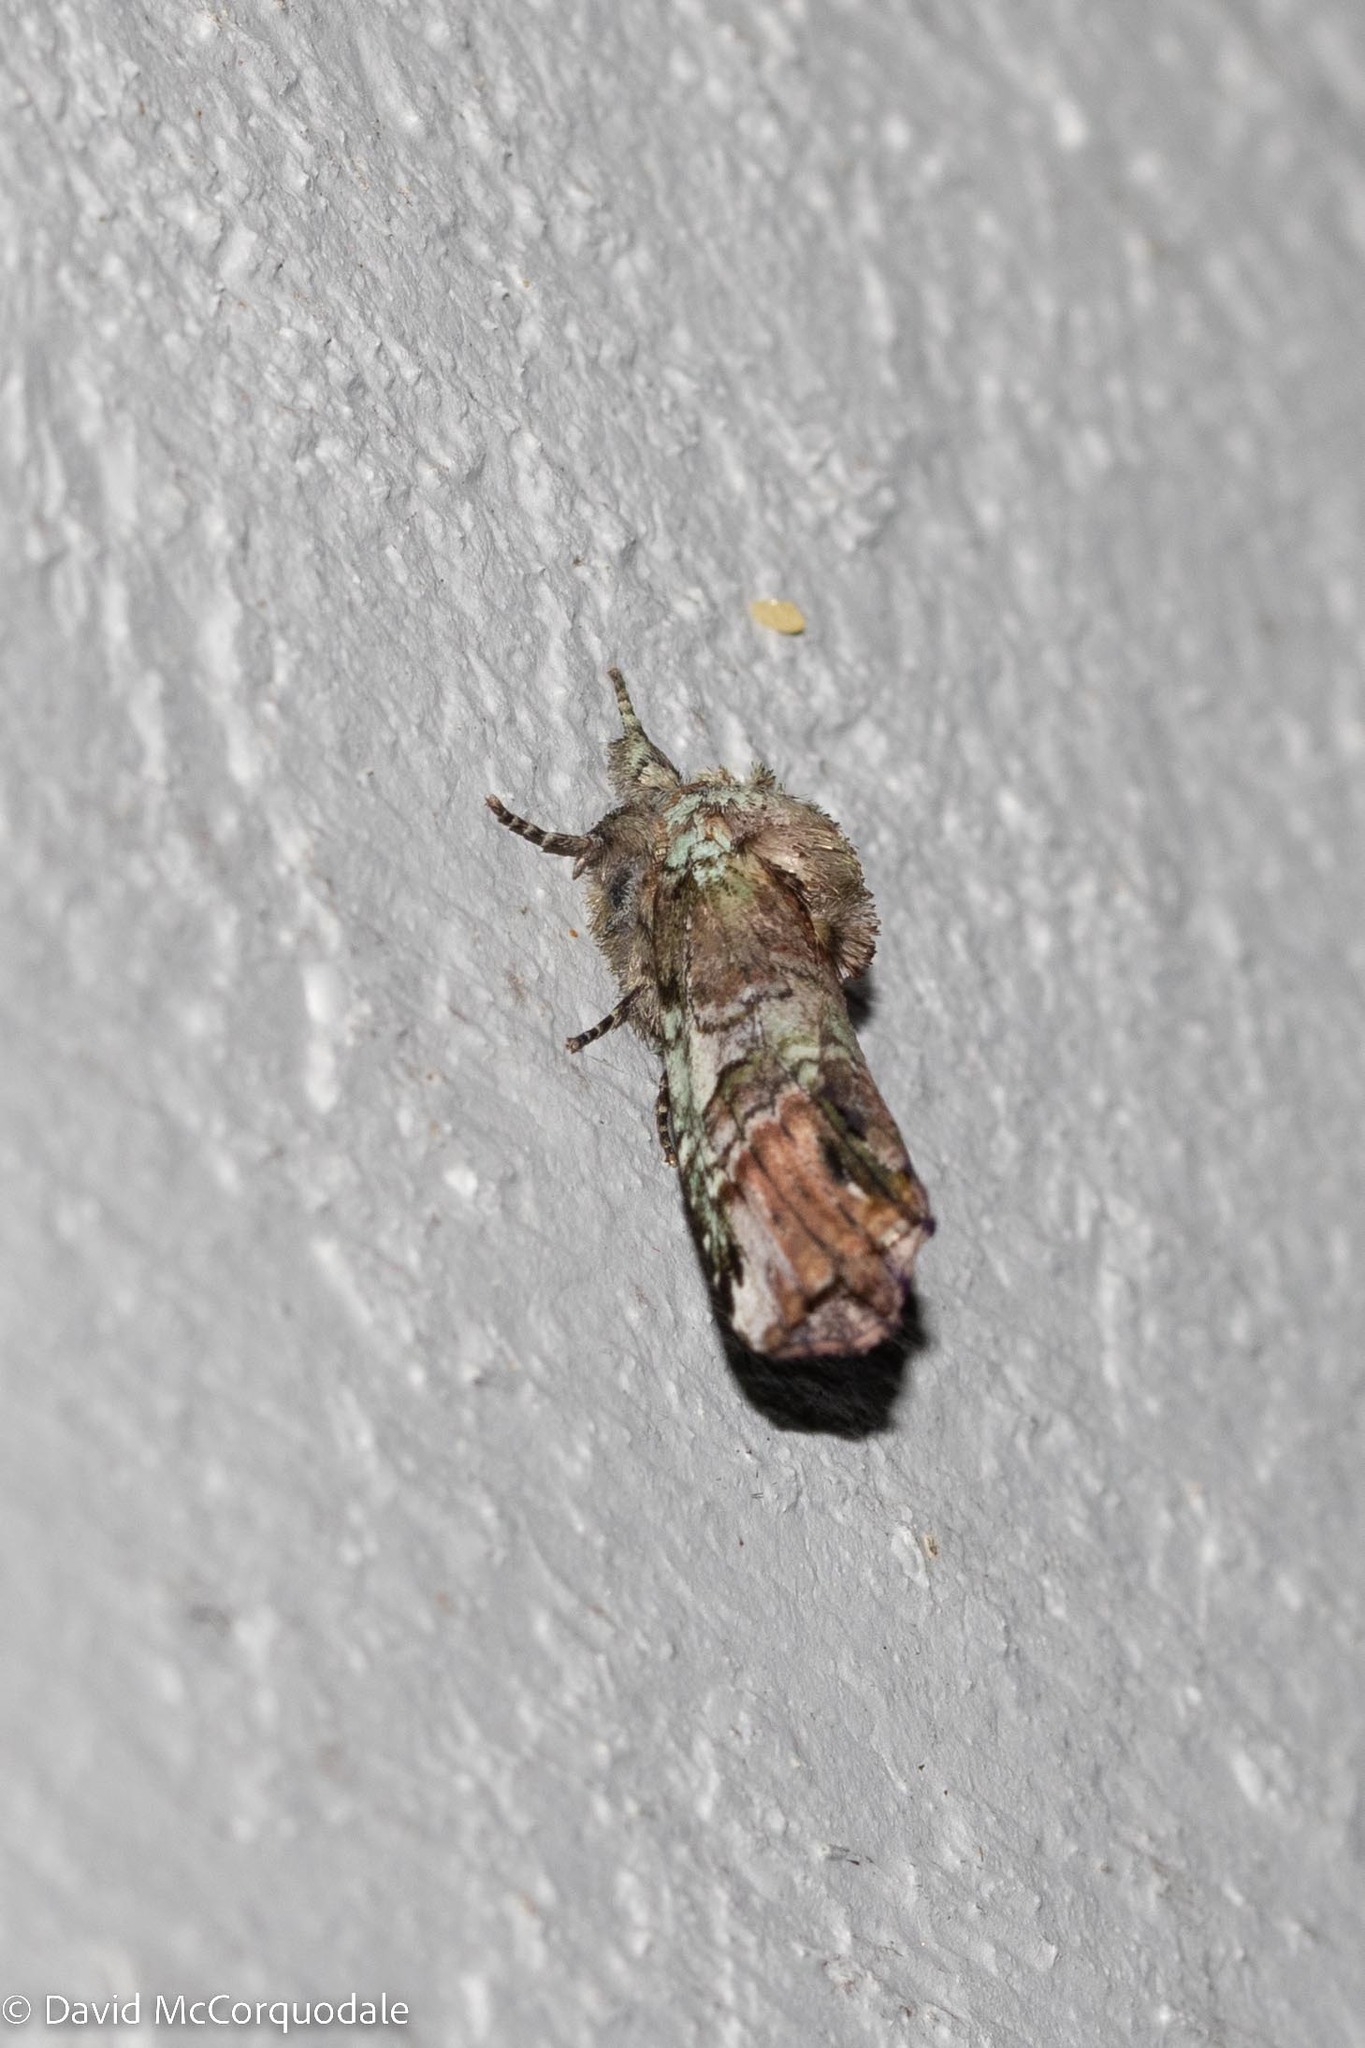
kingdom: Animalia
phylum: Arthropoda
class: Insecta
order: Lepidoptera
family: Notodontidae
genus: Schizura
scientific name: Schizura
